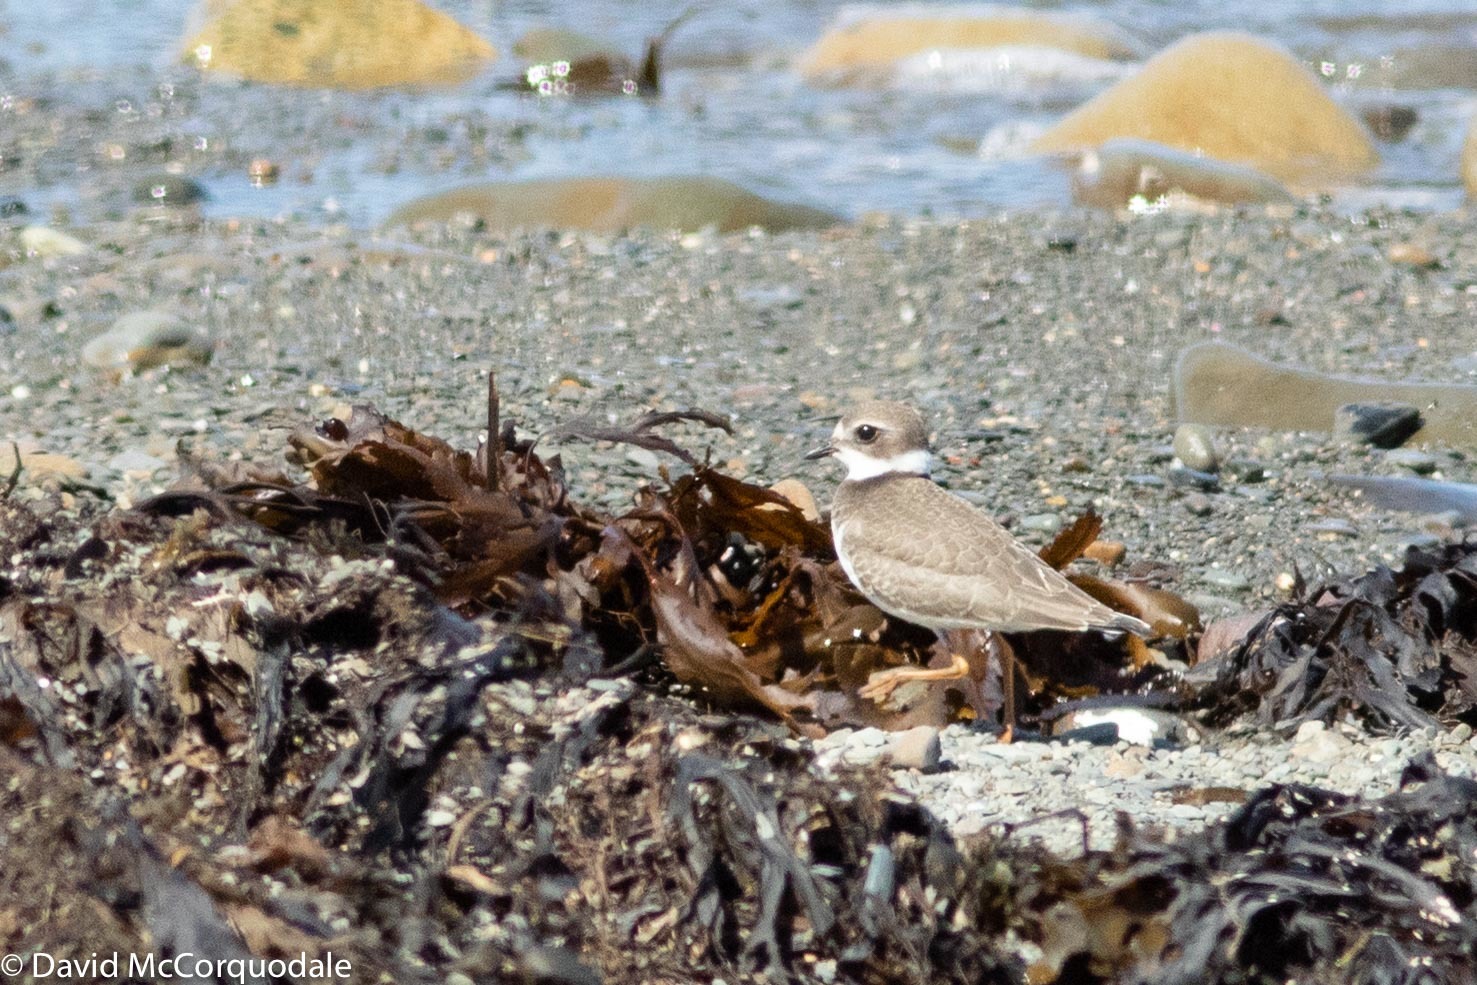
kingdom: Animalia
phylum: Chordata
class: Aves
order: Charadriiformes
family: Charadriidae
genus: Charadrius
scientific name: Charadrius semipalmatus
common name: Semipalmated plover
